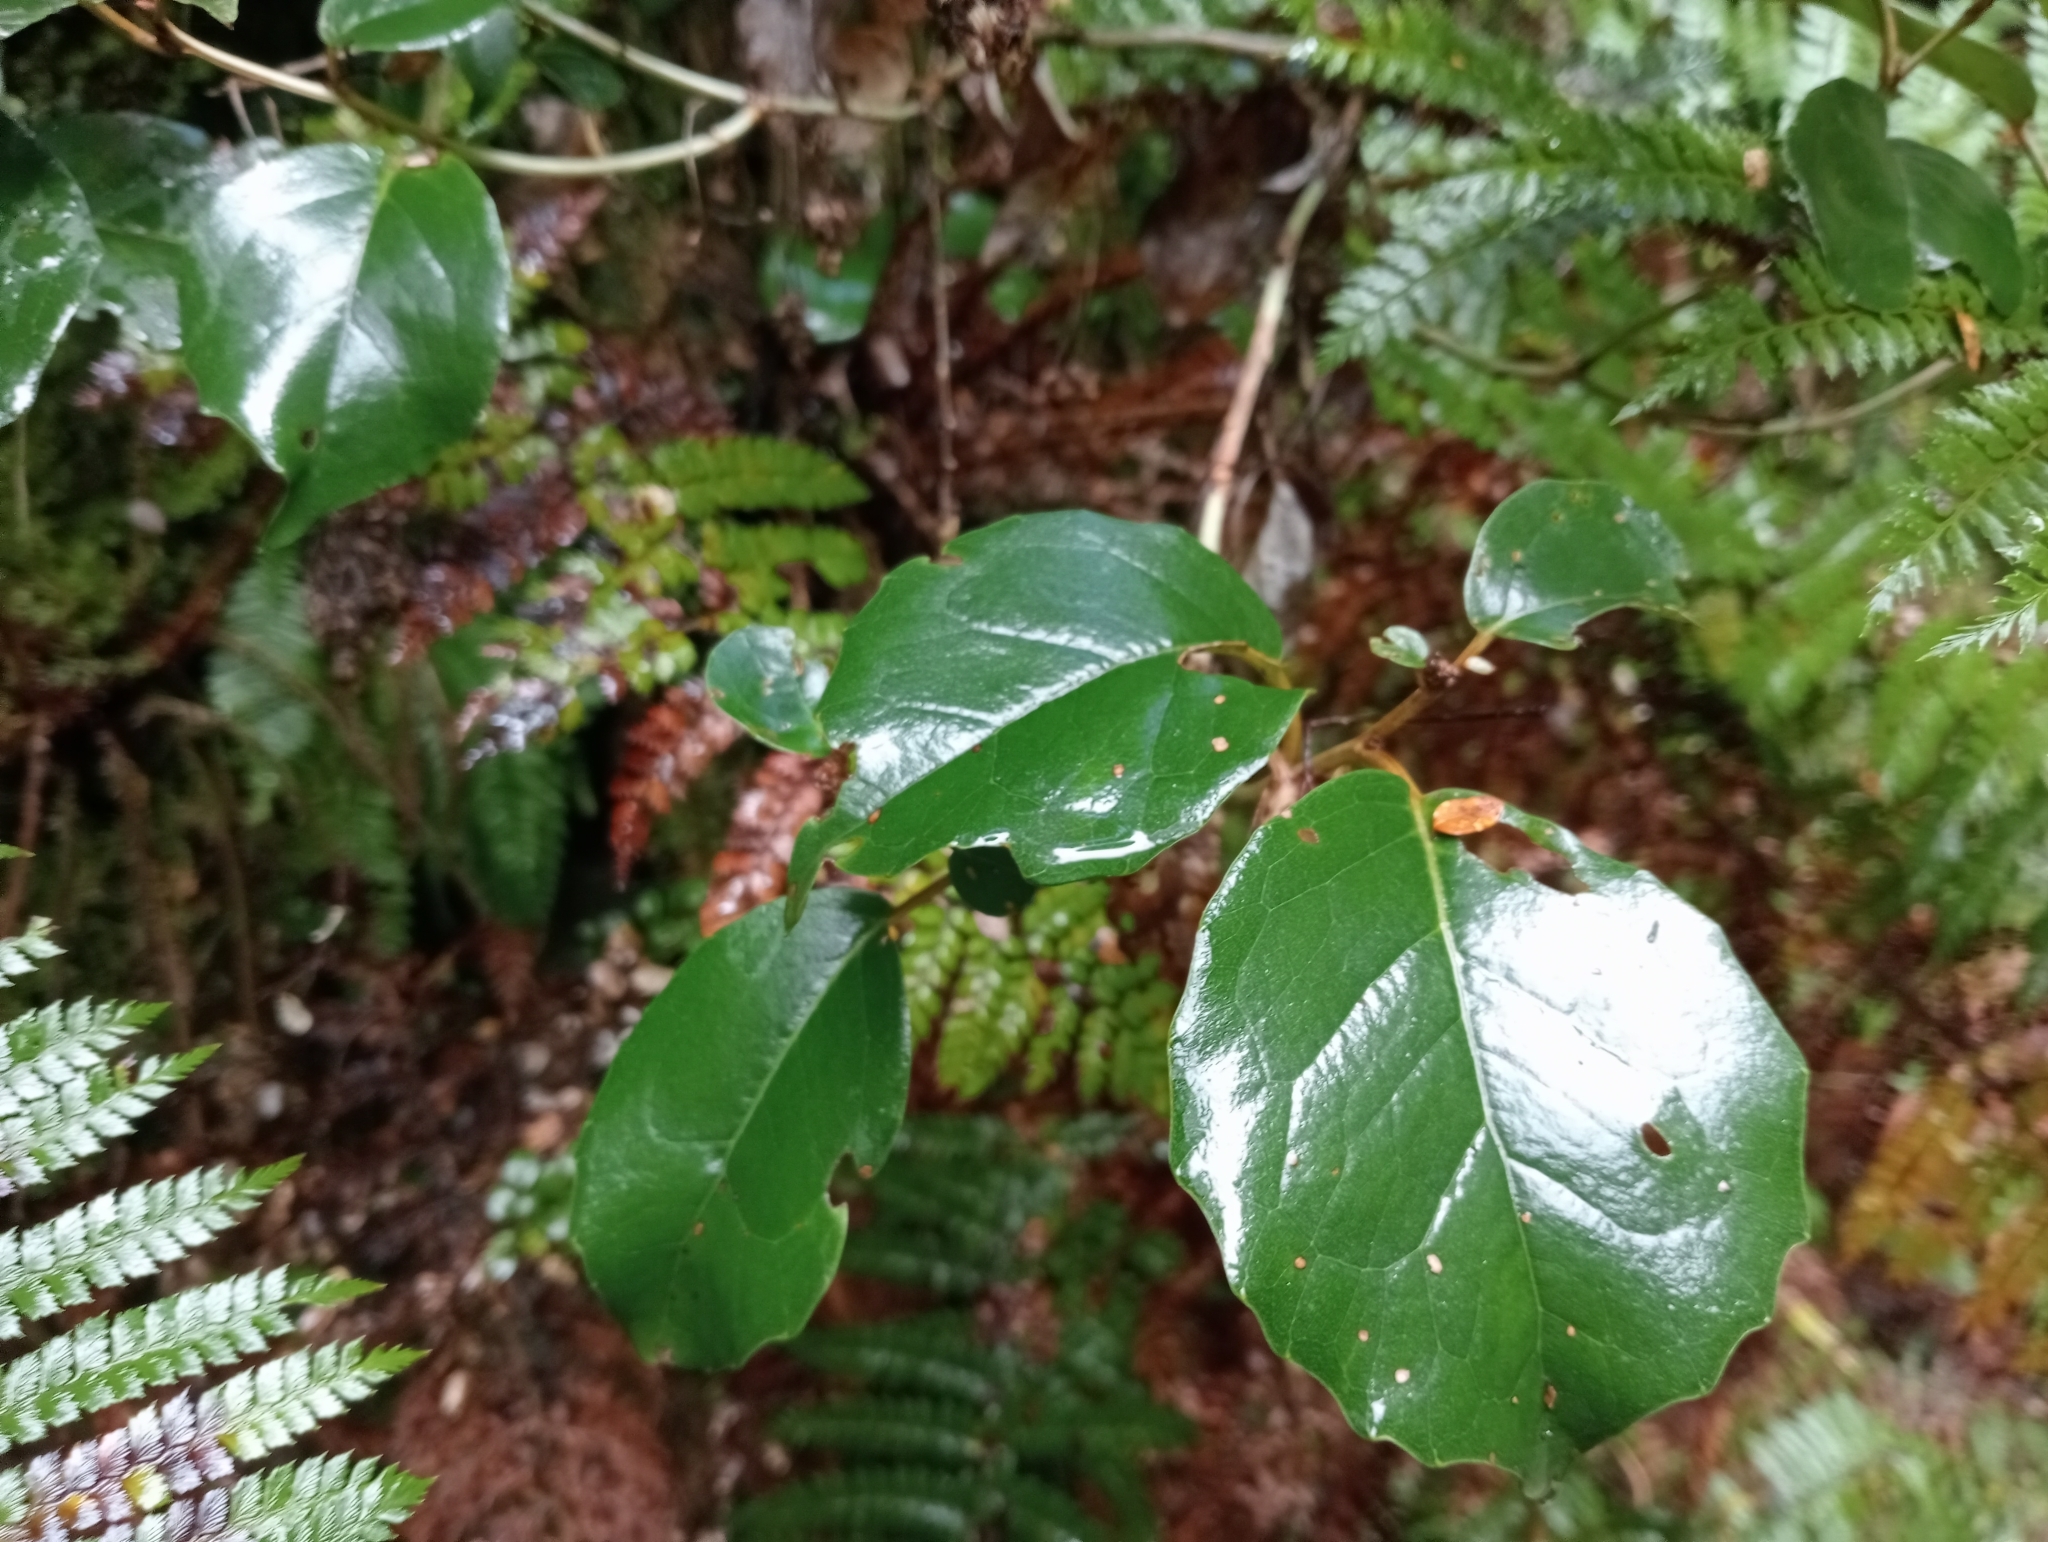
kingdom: Plantae
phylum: Tracheophyta
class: Magnoliopsida
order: Asterales
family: Asteraceae
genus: Olearia
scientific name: Olearia arborescens
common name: Glossy tree daisy
